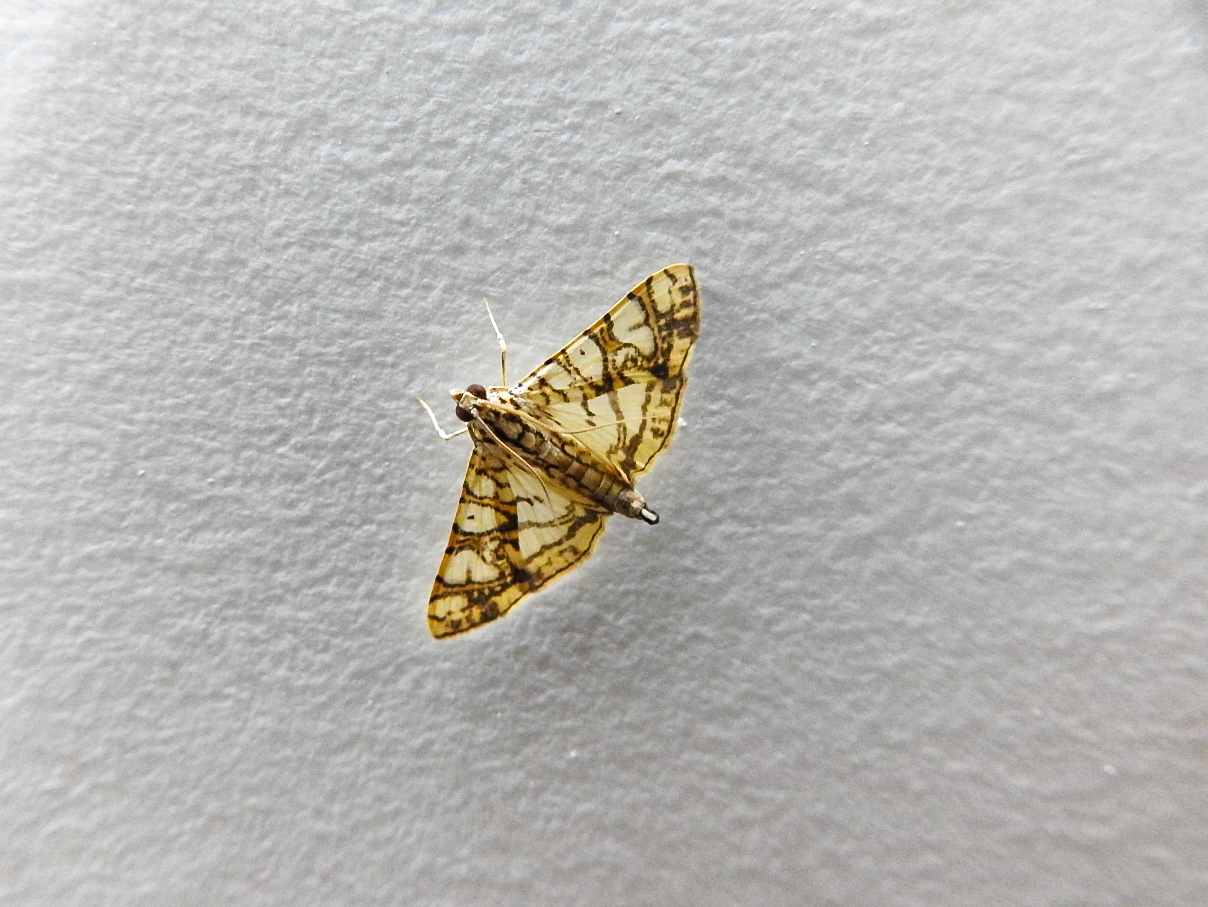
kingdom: Animalia
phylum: Arthropoda
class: Insecta
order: Lepidoptera
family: Crambidae
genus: Glyphodes
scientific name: Glyphodes caesalis
